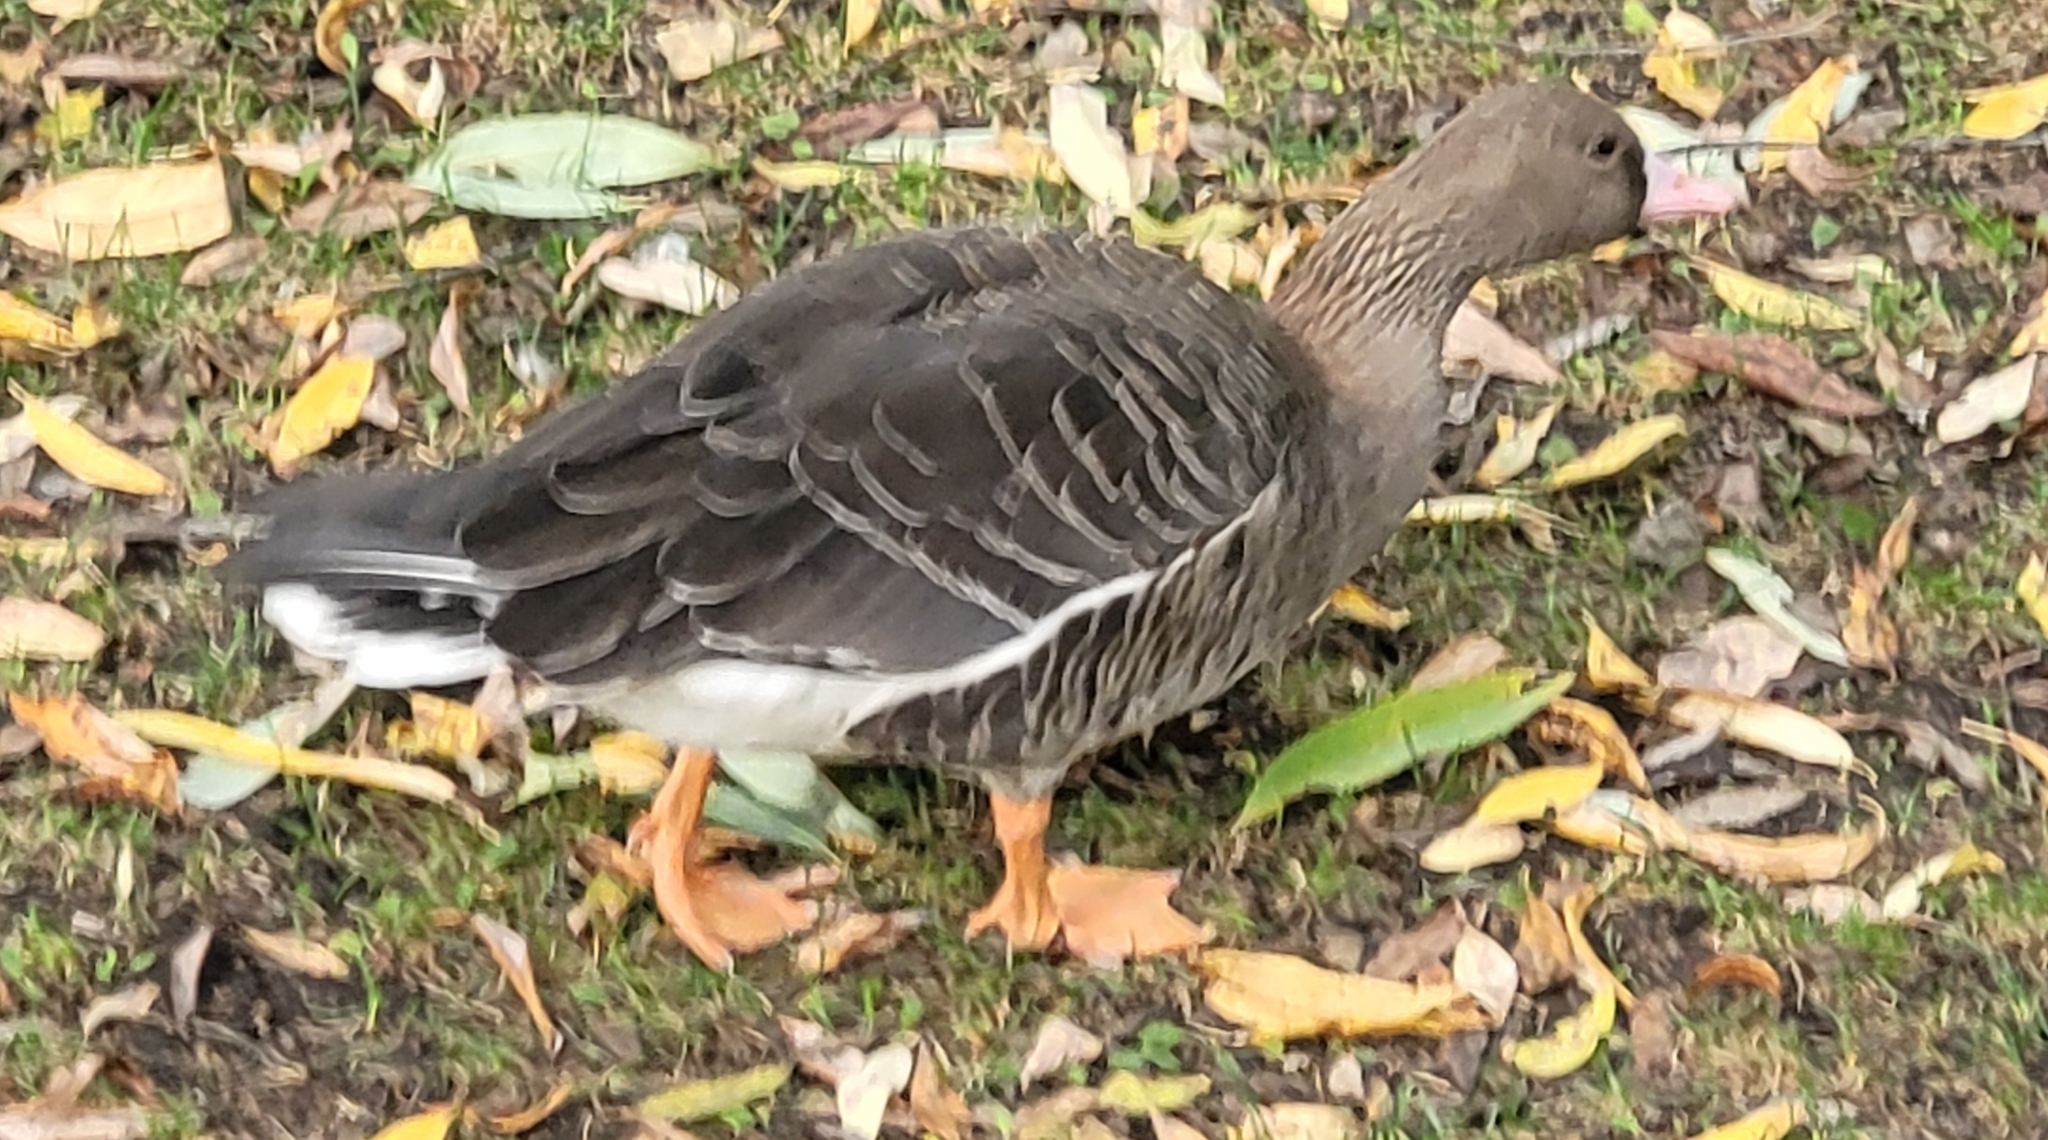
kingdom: Animalia
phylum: Chordata
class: Aves
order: Anseriformes
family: Anatidae
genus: Anser
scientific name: Anser albifrons
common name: Greater white-fronted goose
